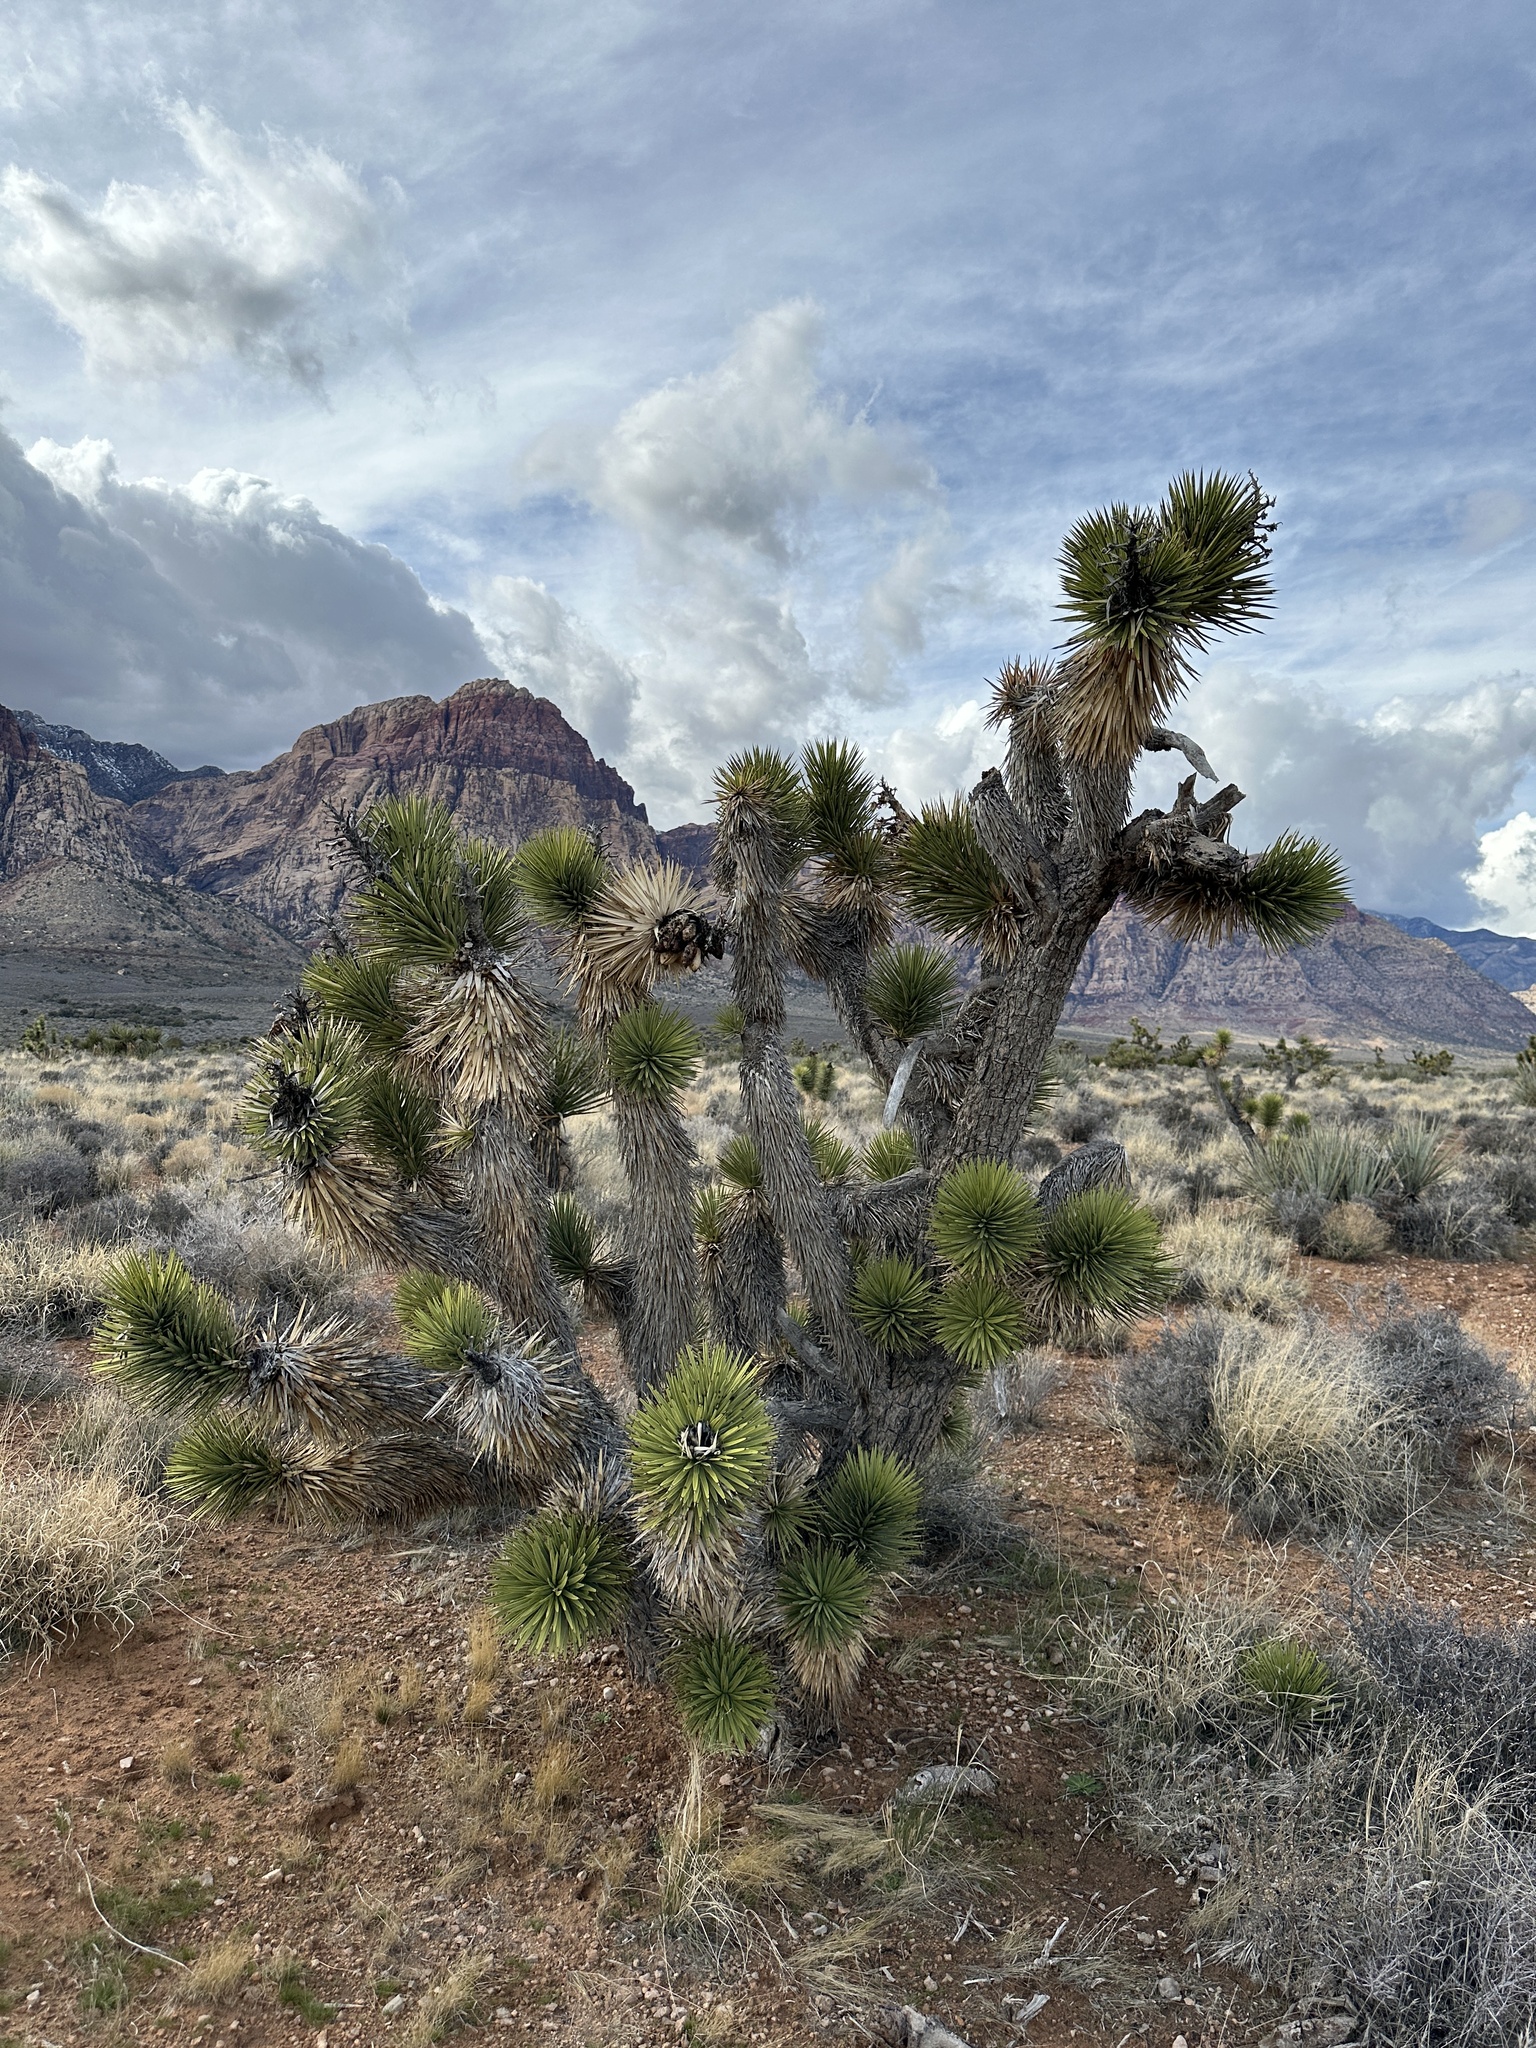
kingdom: Plantae
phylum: Tracheophyta
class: Liliopsida
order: Asparagales
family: Asparagaceae
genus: Yucca
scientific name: Yucca brevifolia
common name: Joshua tree
